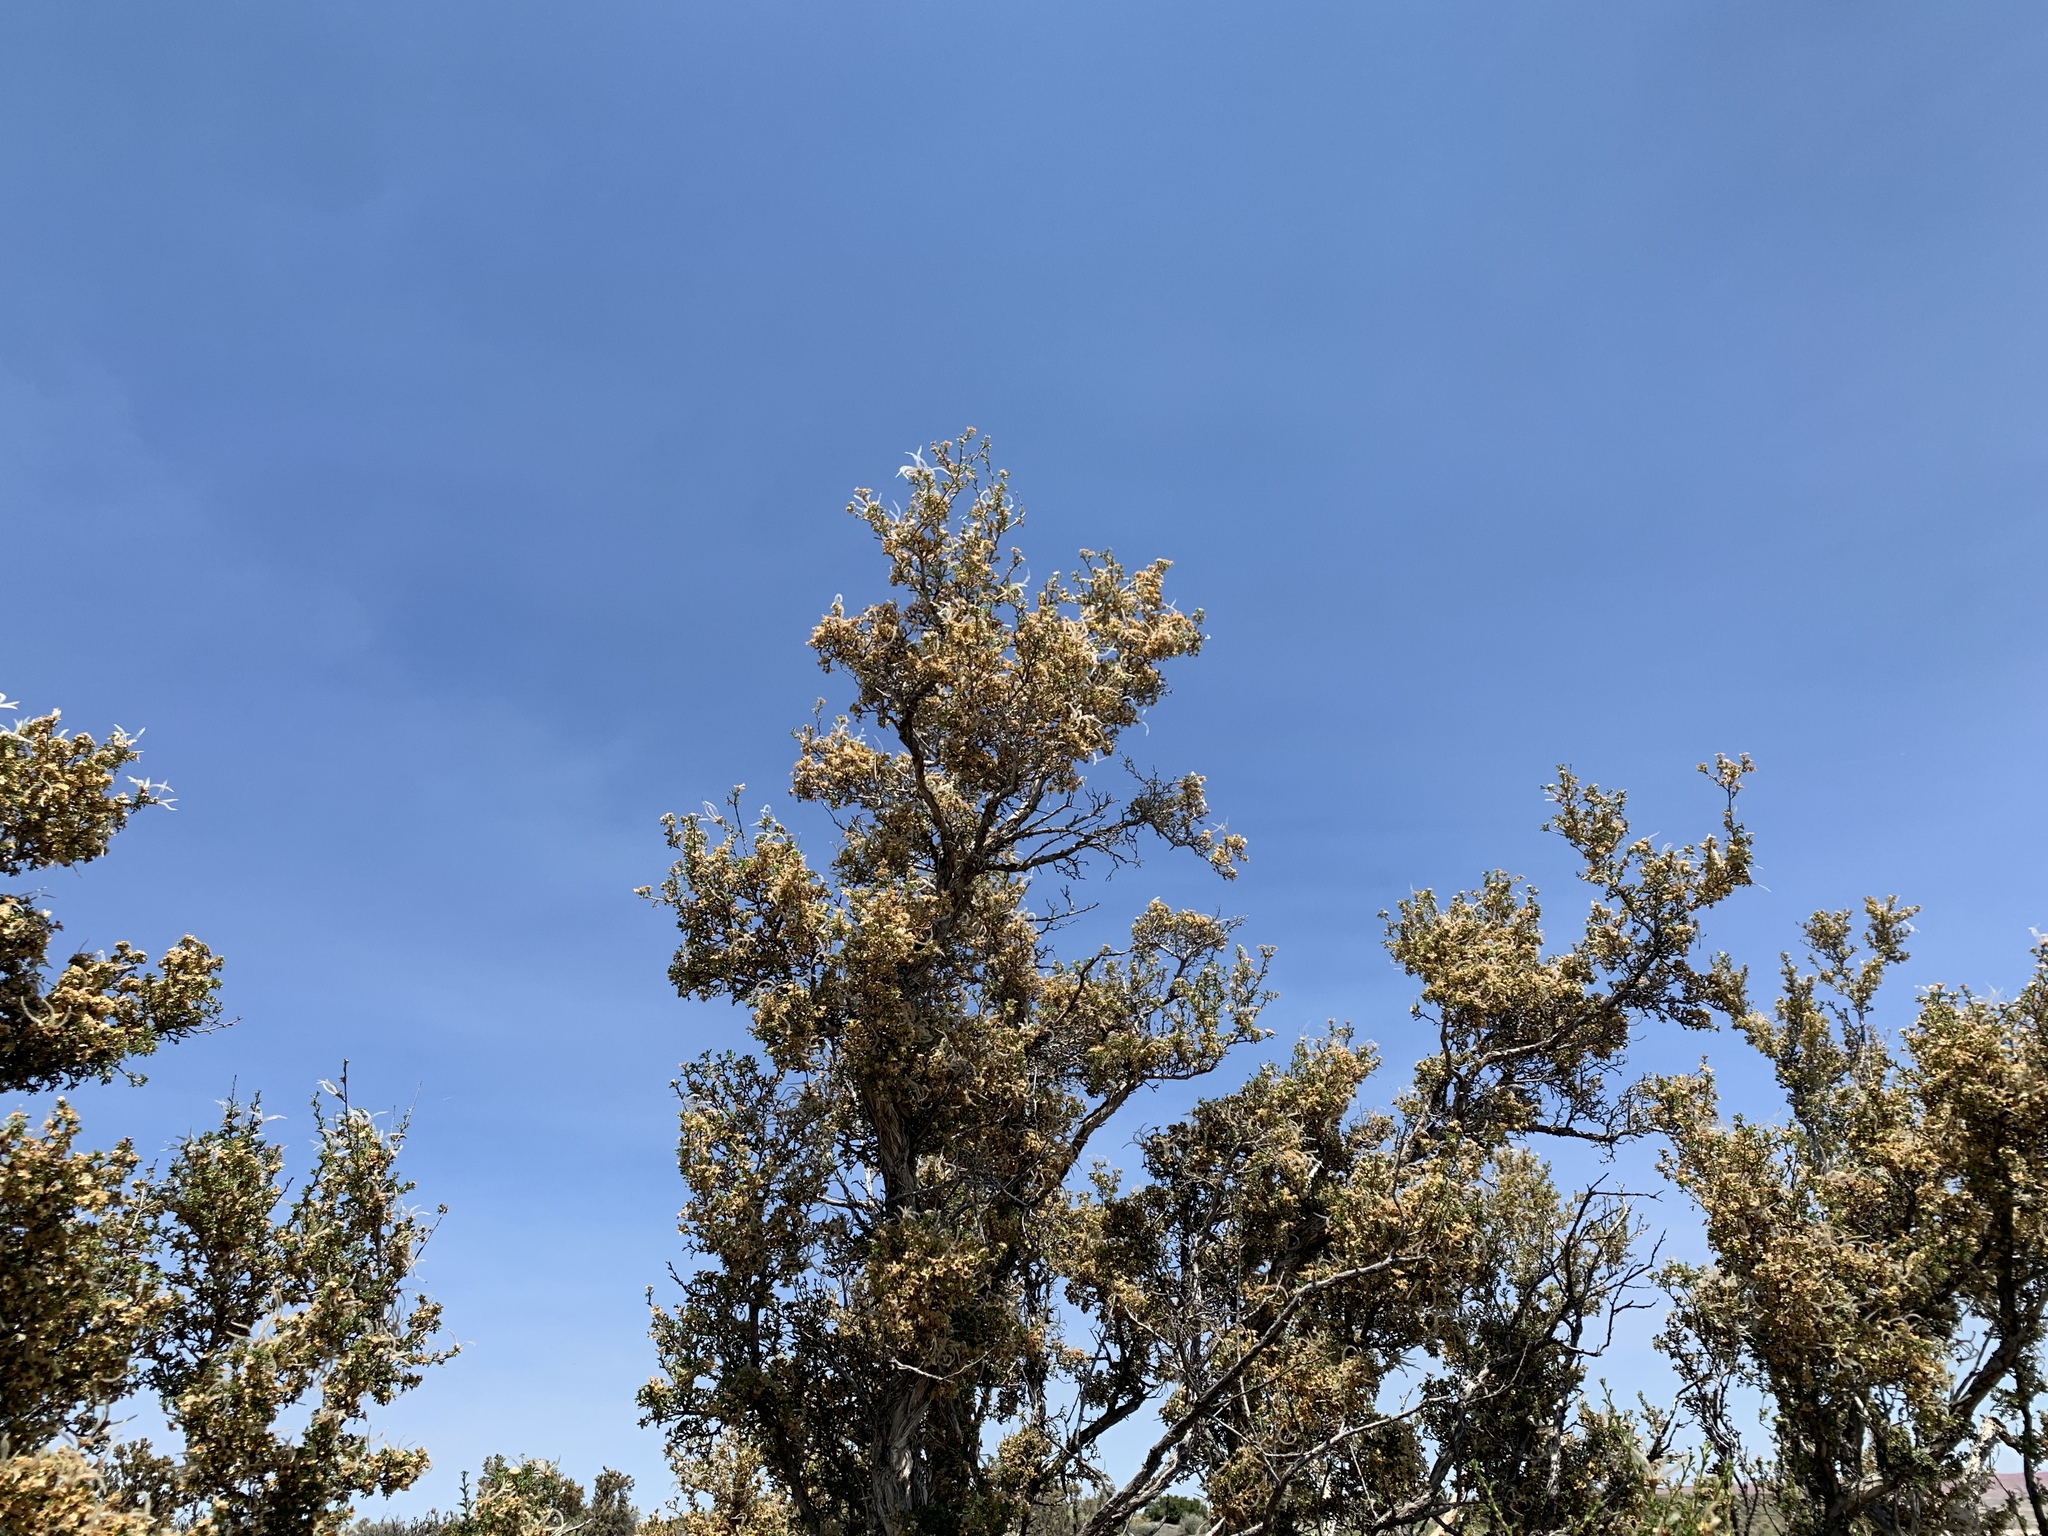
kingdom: Plantae
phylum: Tracheophyta
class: Magnoliopsida
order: Rosales
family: Rosaceae
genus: Purshia
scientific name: Purshia stansburiana
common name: Stansbury's cliffrose
